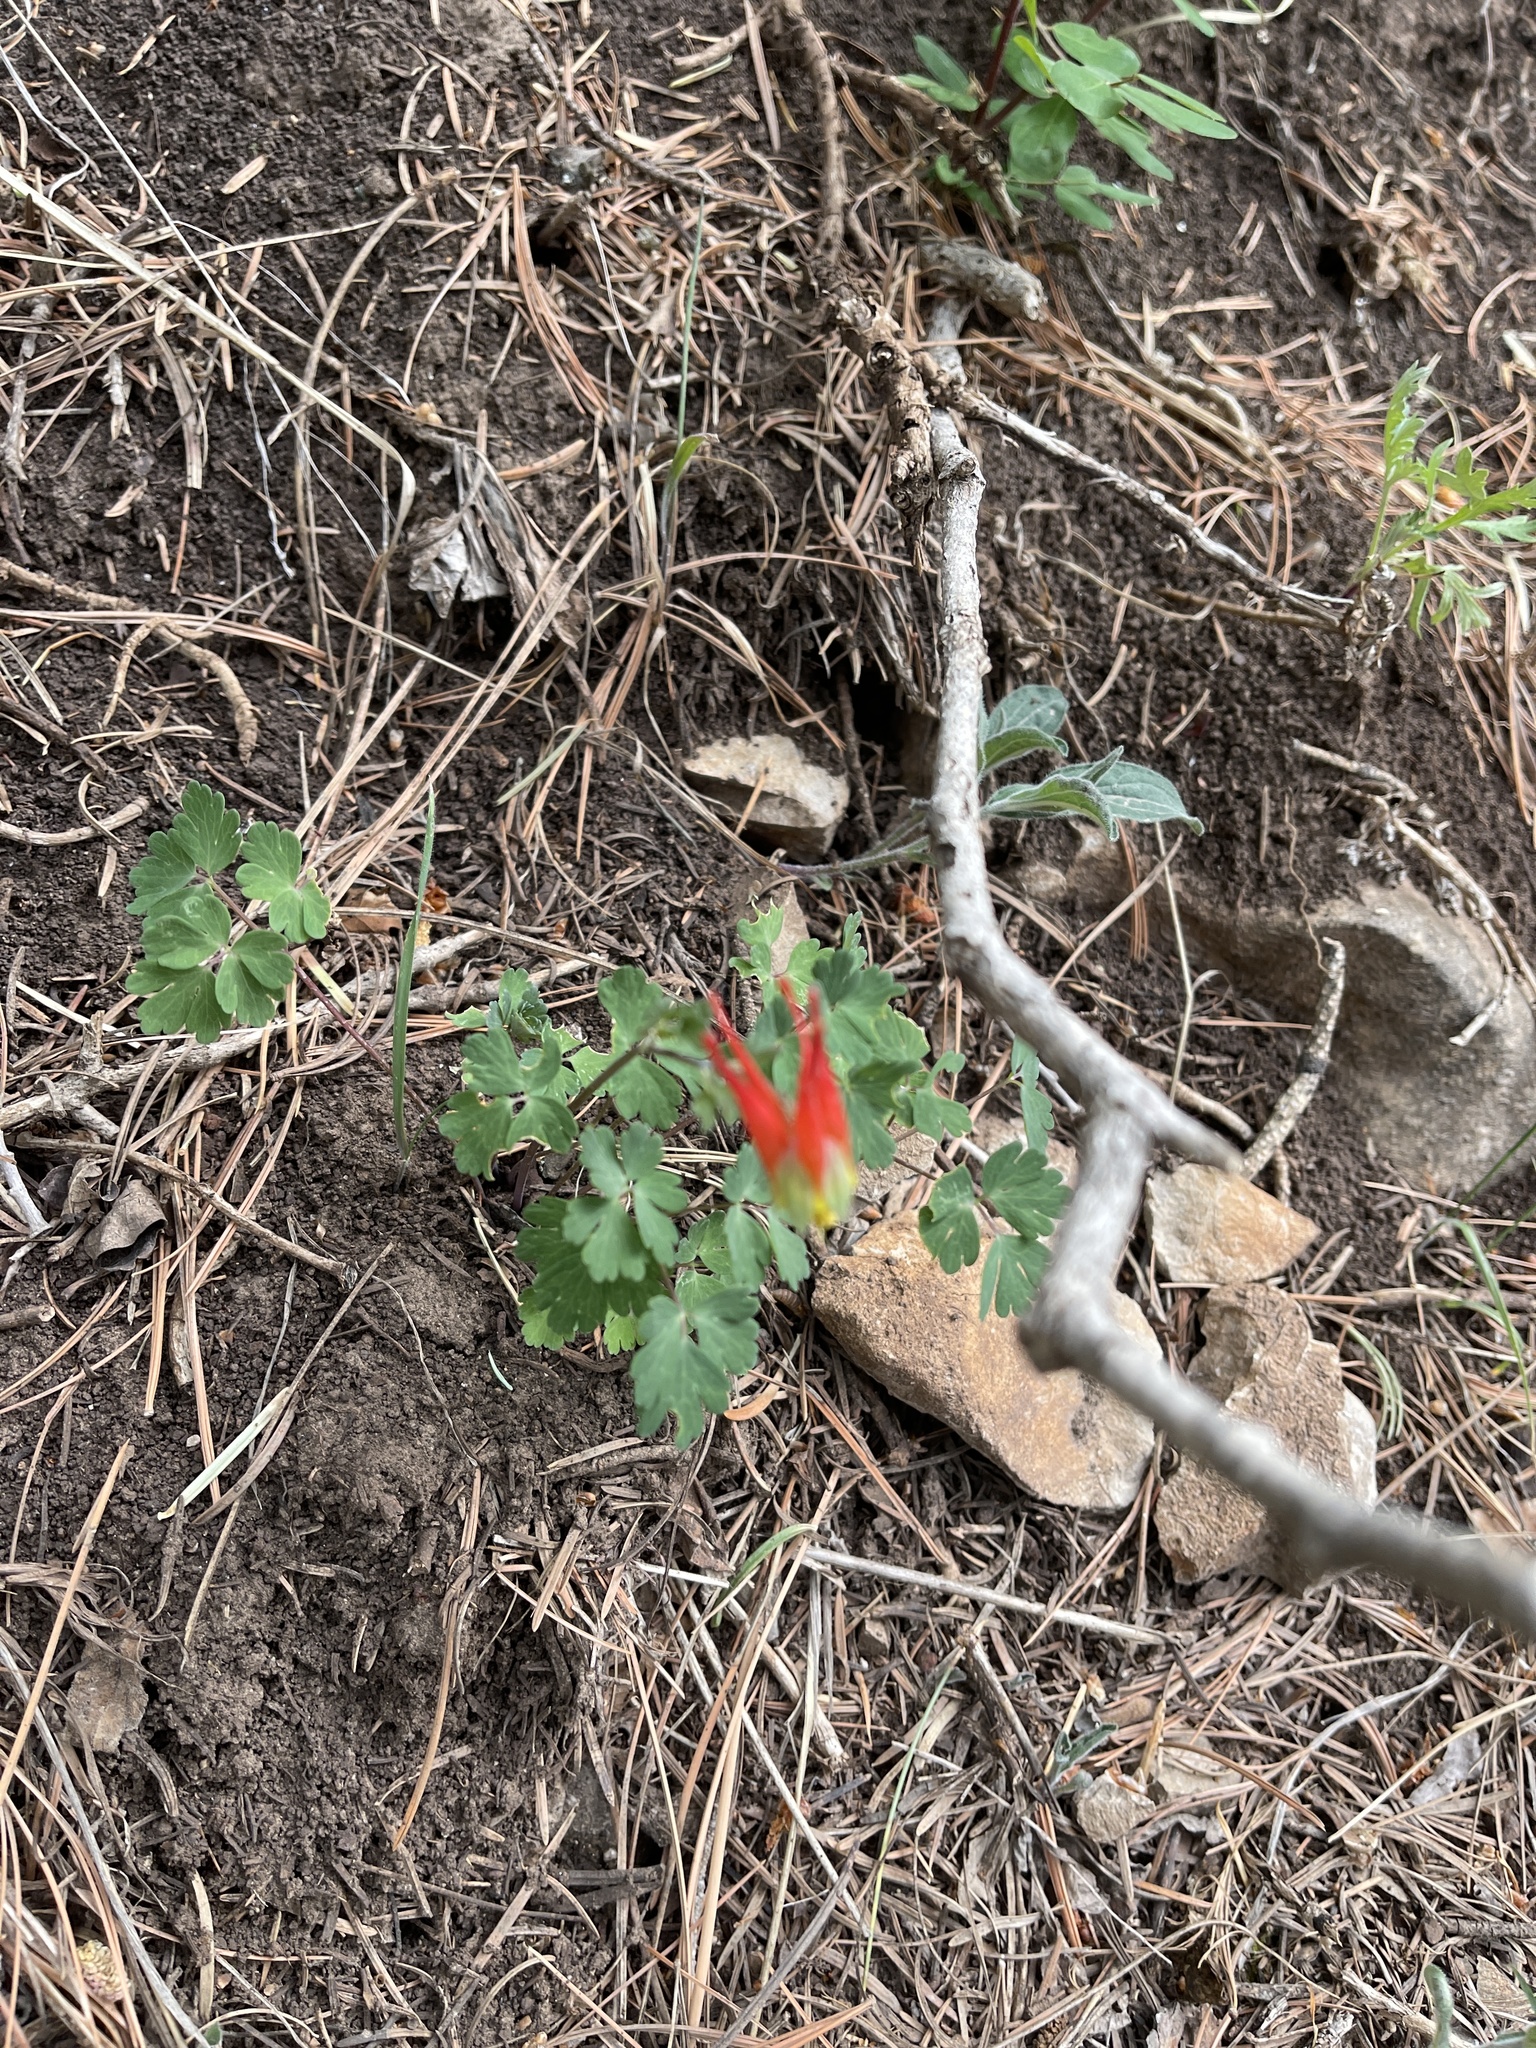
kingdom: Plantae
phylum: Tracheophyta
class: Magnoliopsida
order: Ranunculales
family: Ranunculaceae
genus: Aquilegia
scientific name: Aquilegia elegantula
